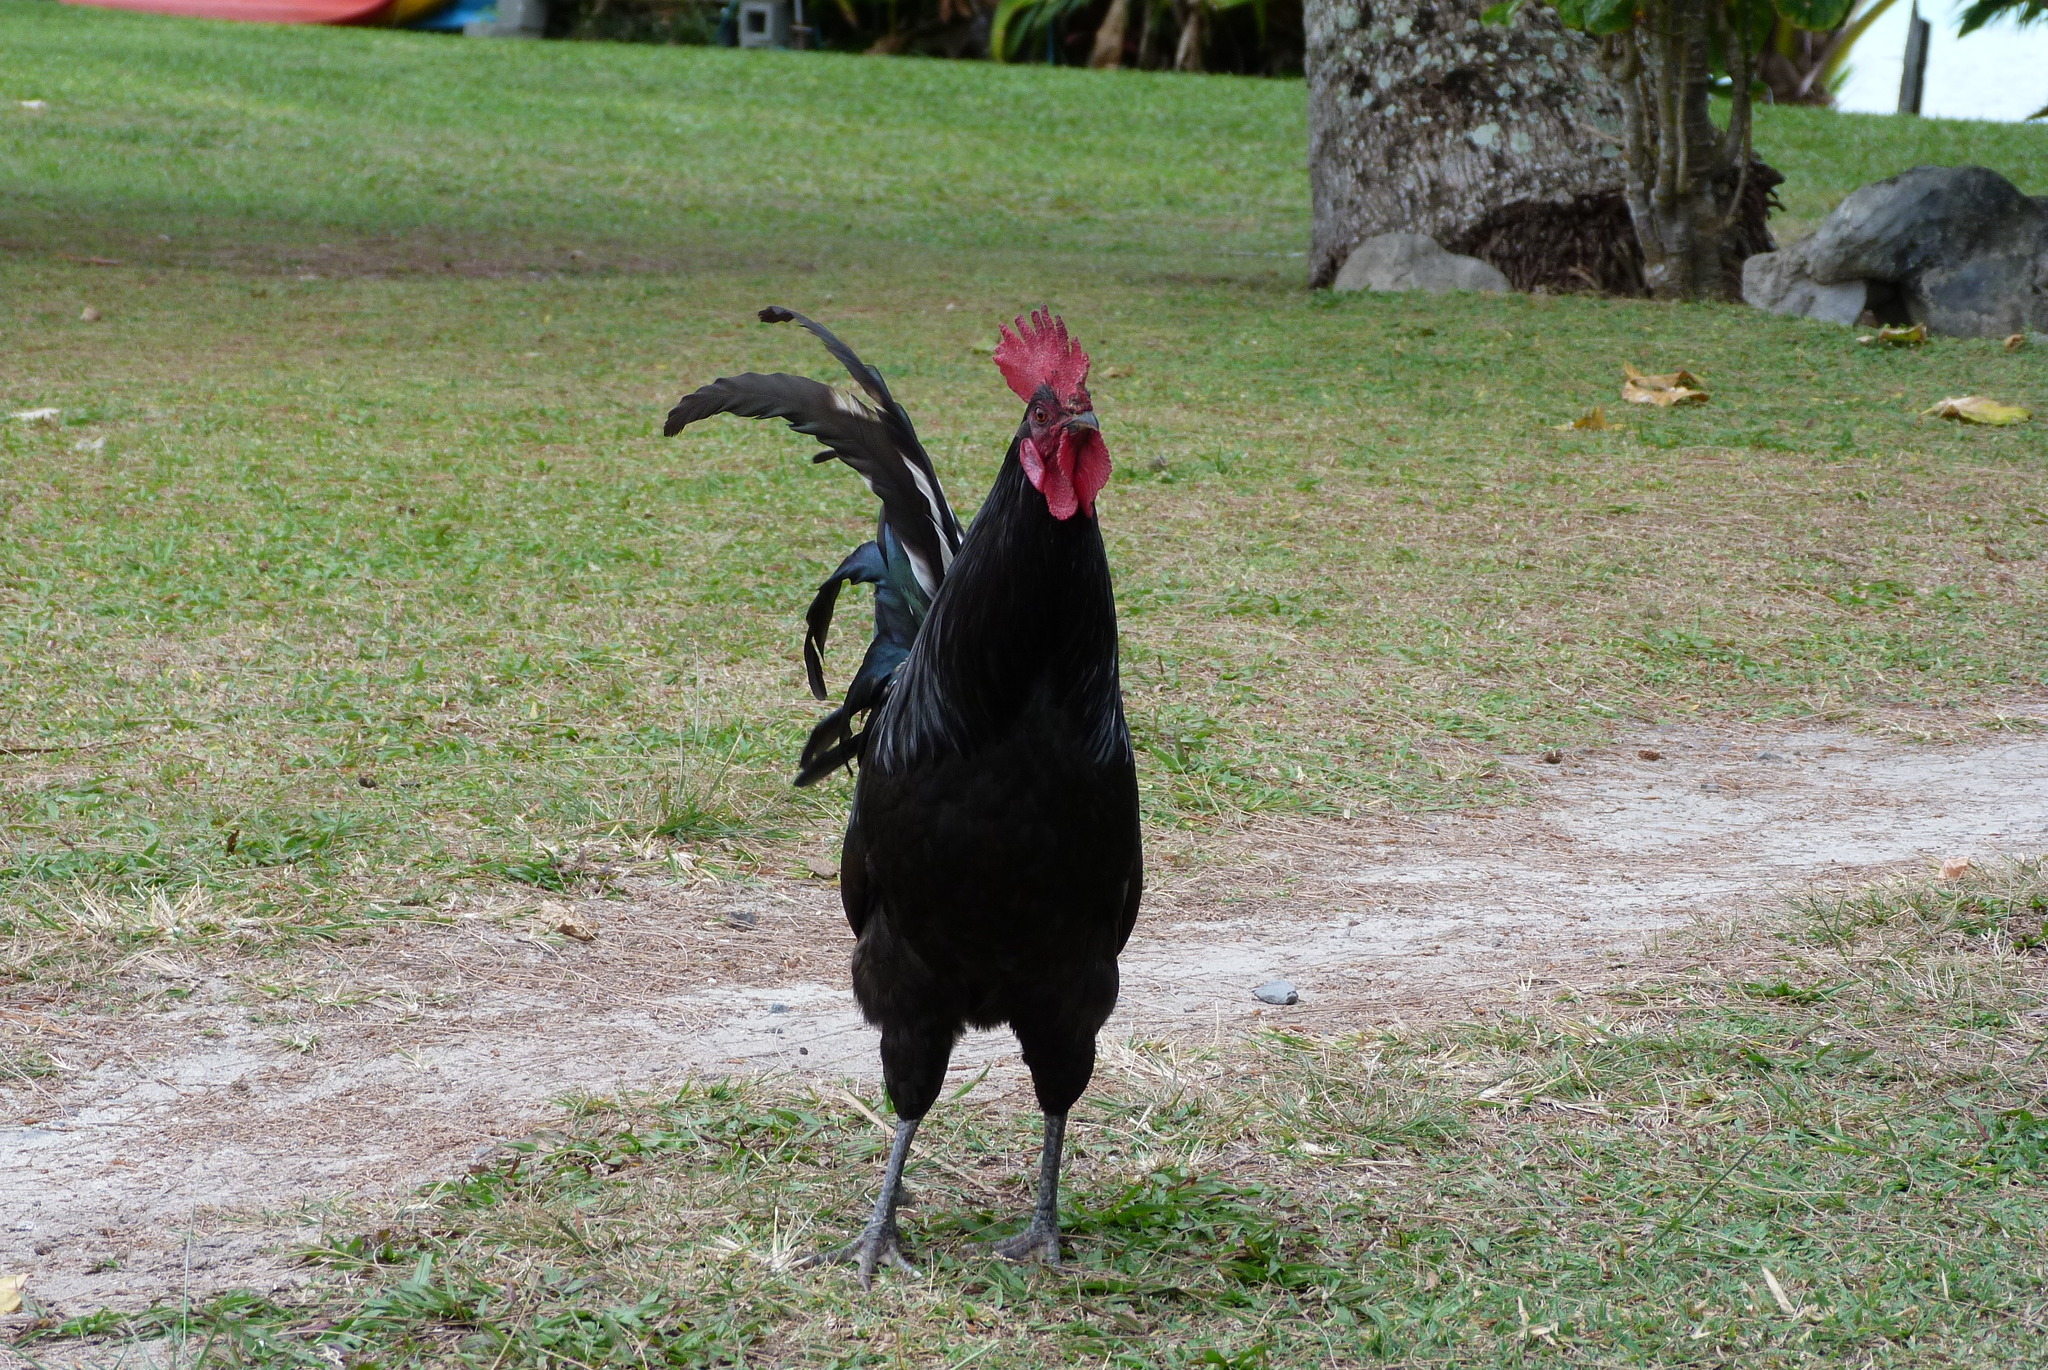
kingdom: Animalia
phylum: Chordata
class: Aves
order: Galliformes
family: Phasianidae
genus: Gallus
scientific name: Gallus gallus
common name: Red junglefowl
